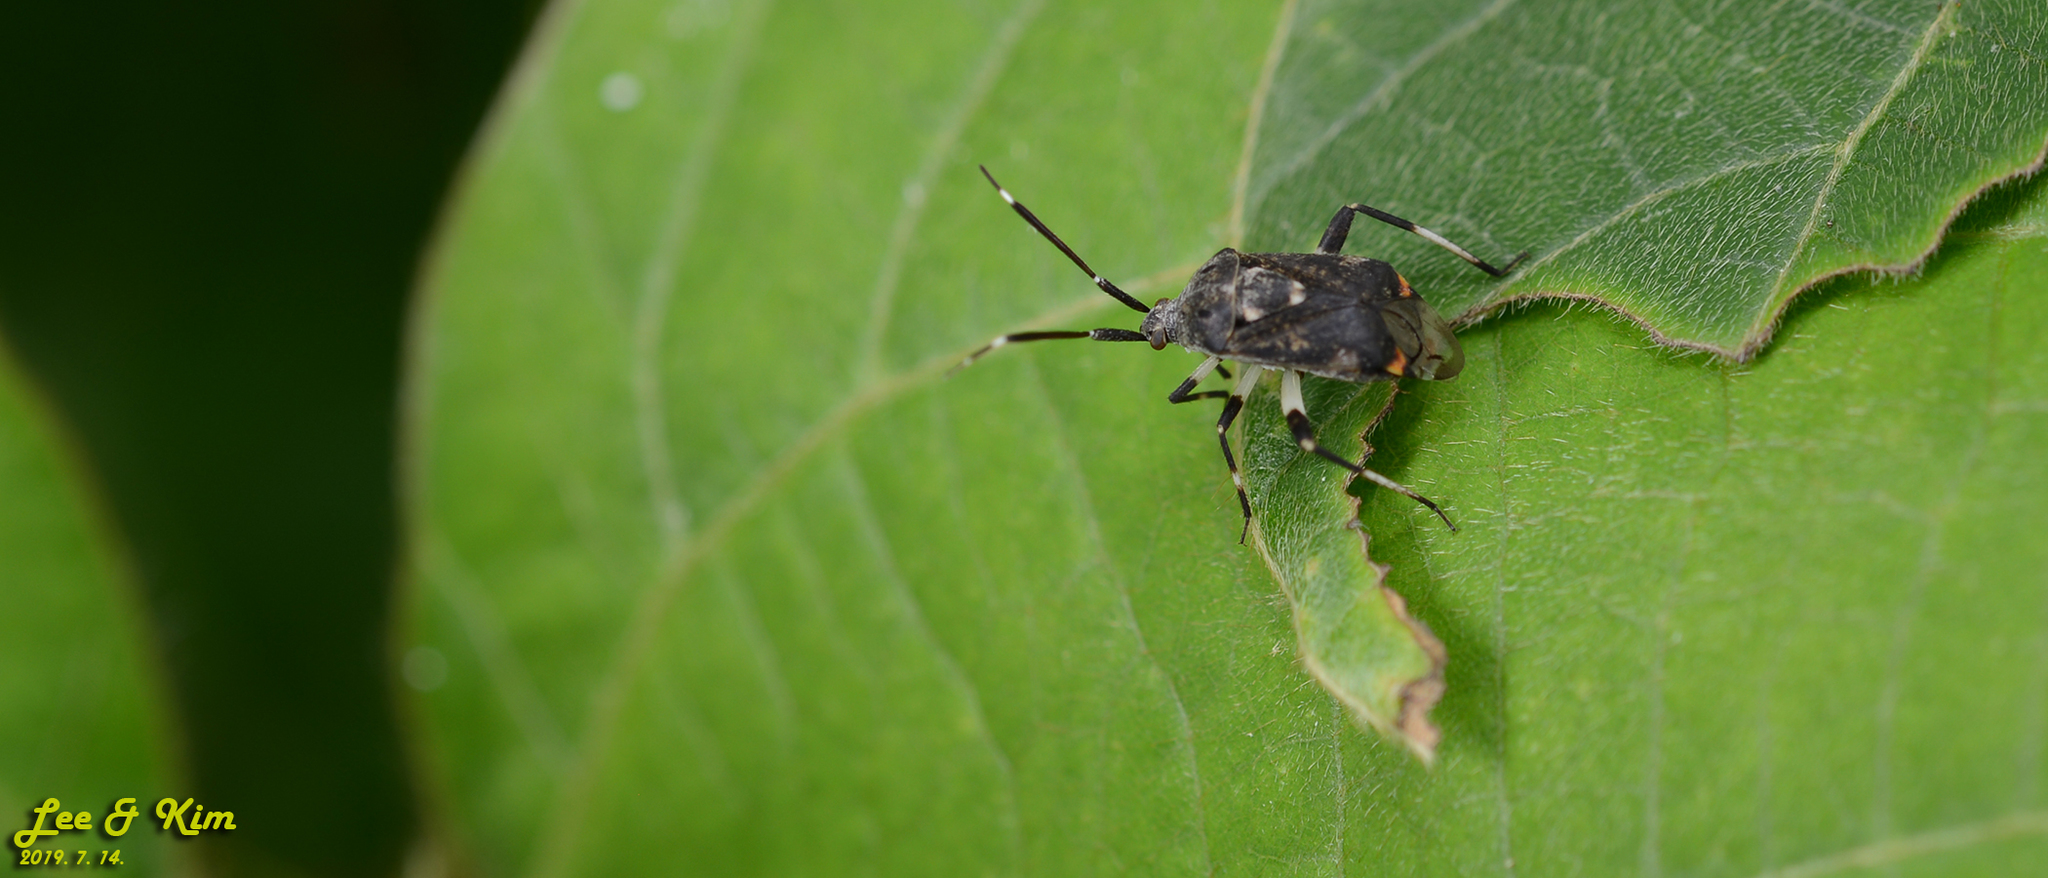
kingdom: Animalia
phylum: Arthropoda
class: Insecta
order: Hemiptera
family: Miridae
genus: Eurystylus
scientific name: Eurystylus coelestialium
